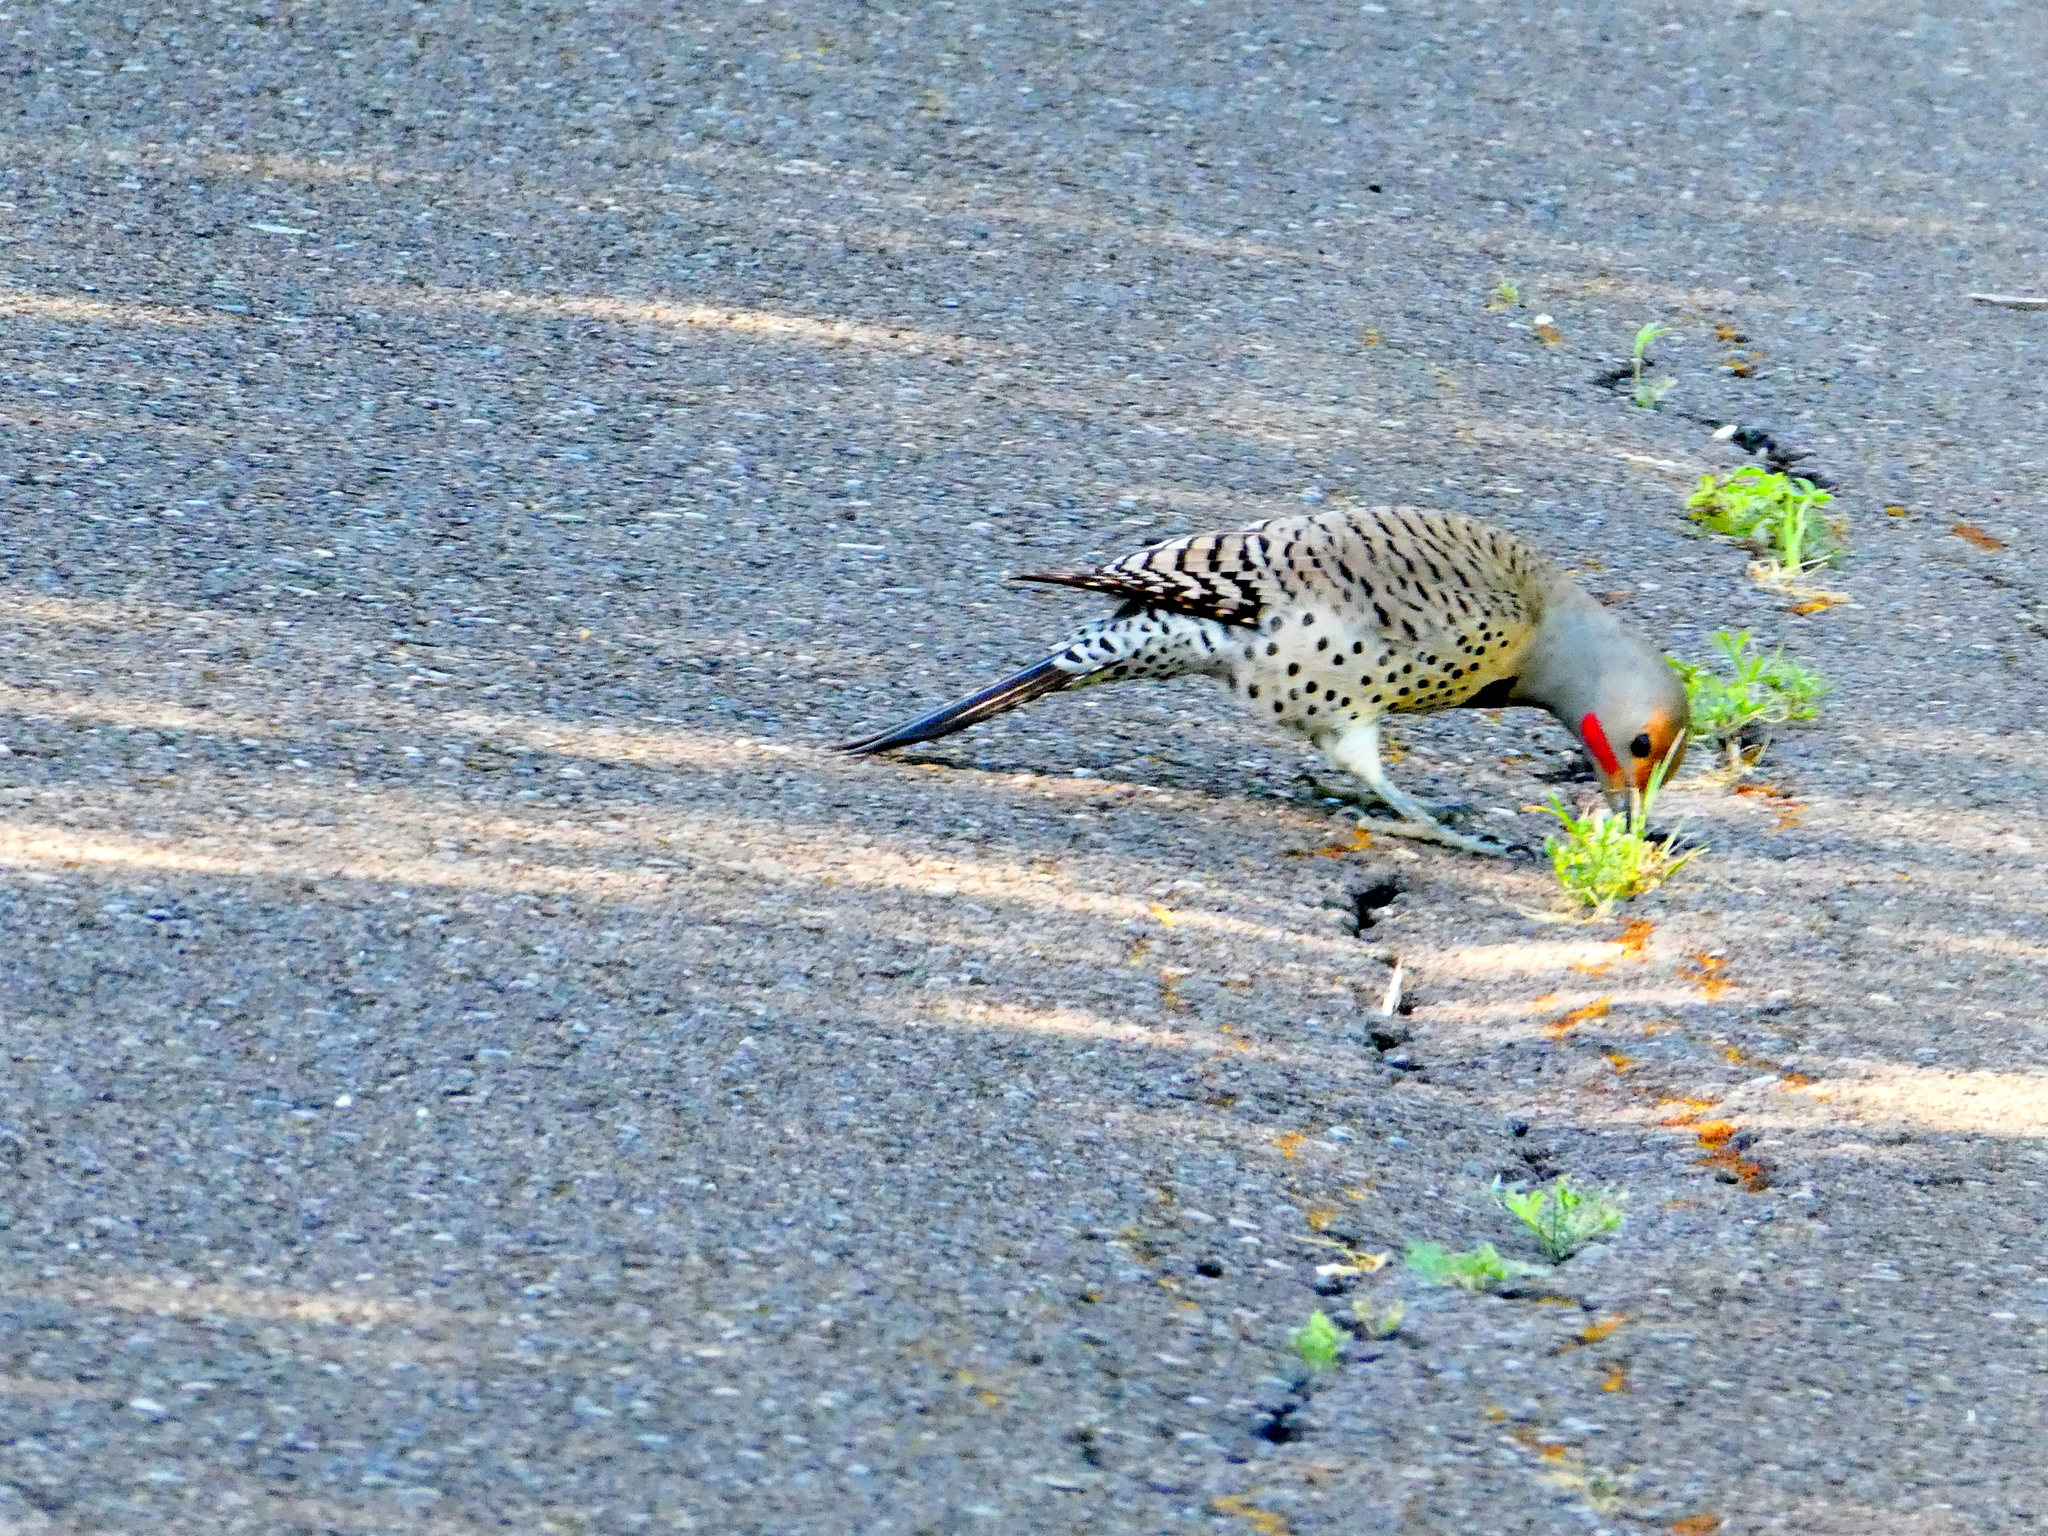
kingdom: Animalia
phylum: Chordata
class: Aves
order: Piciformes
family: Picidae
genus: Colaptes
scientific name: Colaptes auratus
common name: Northern flicker
